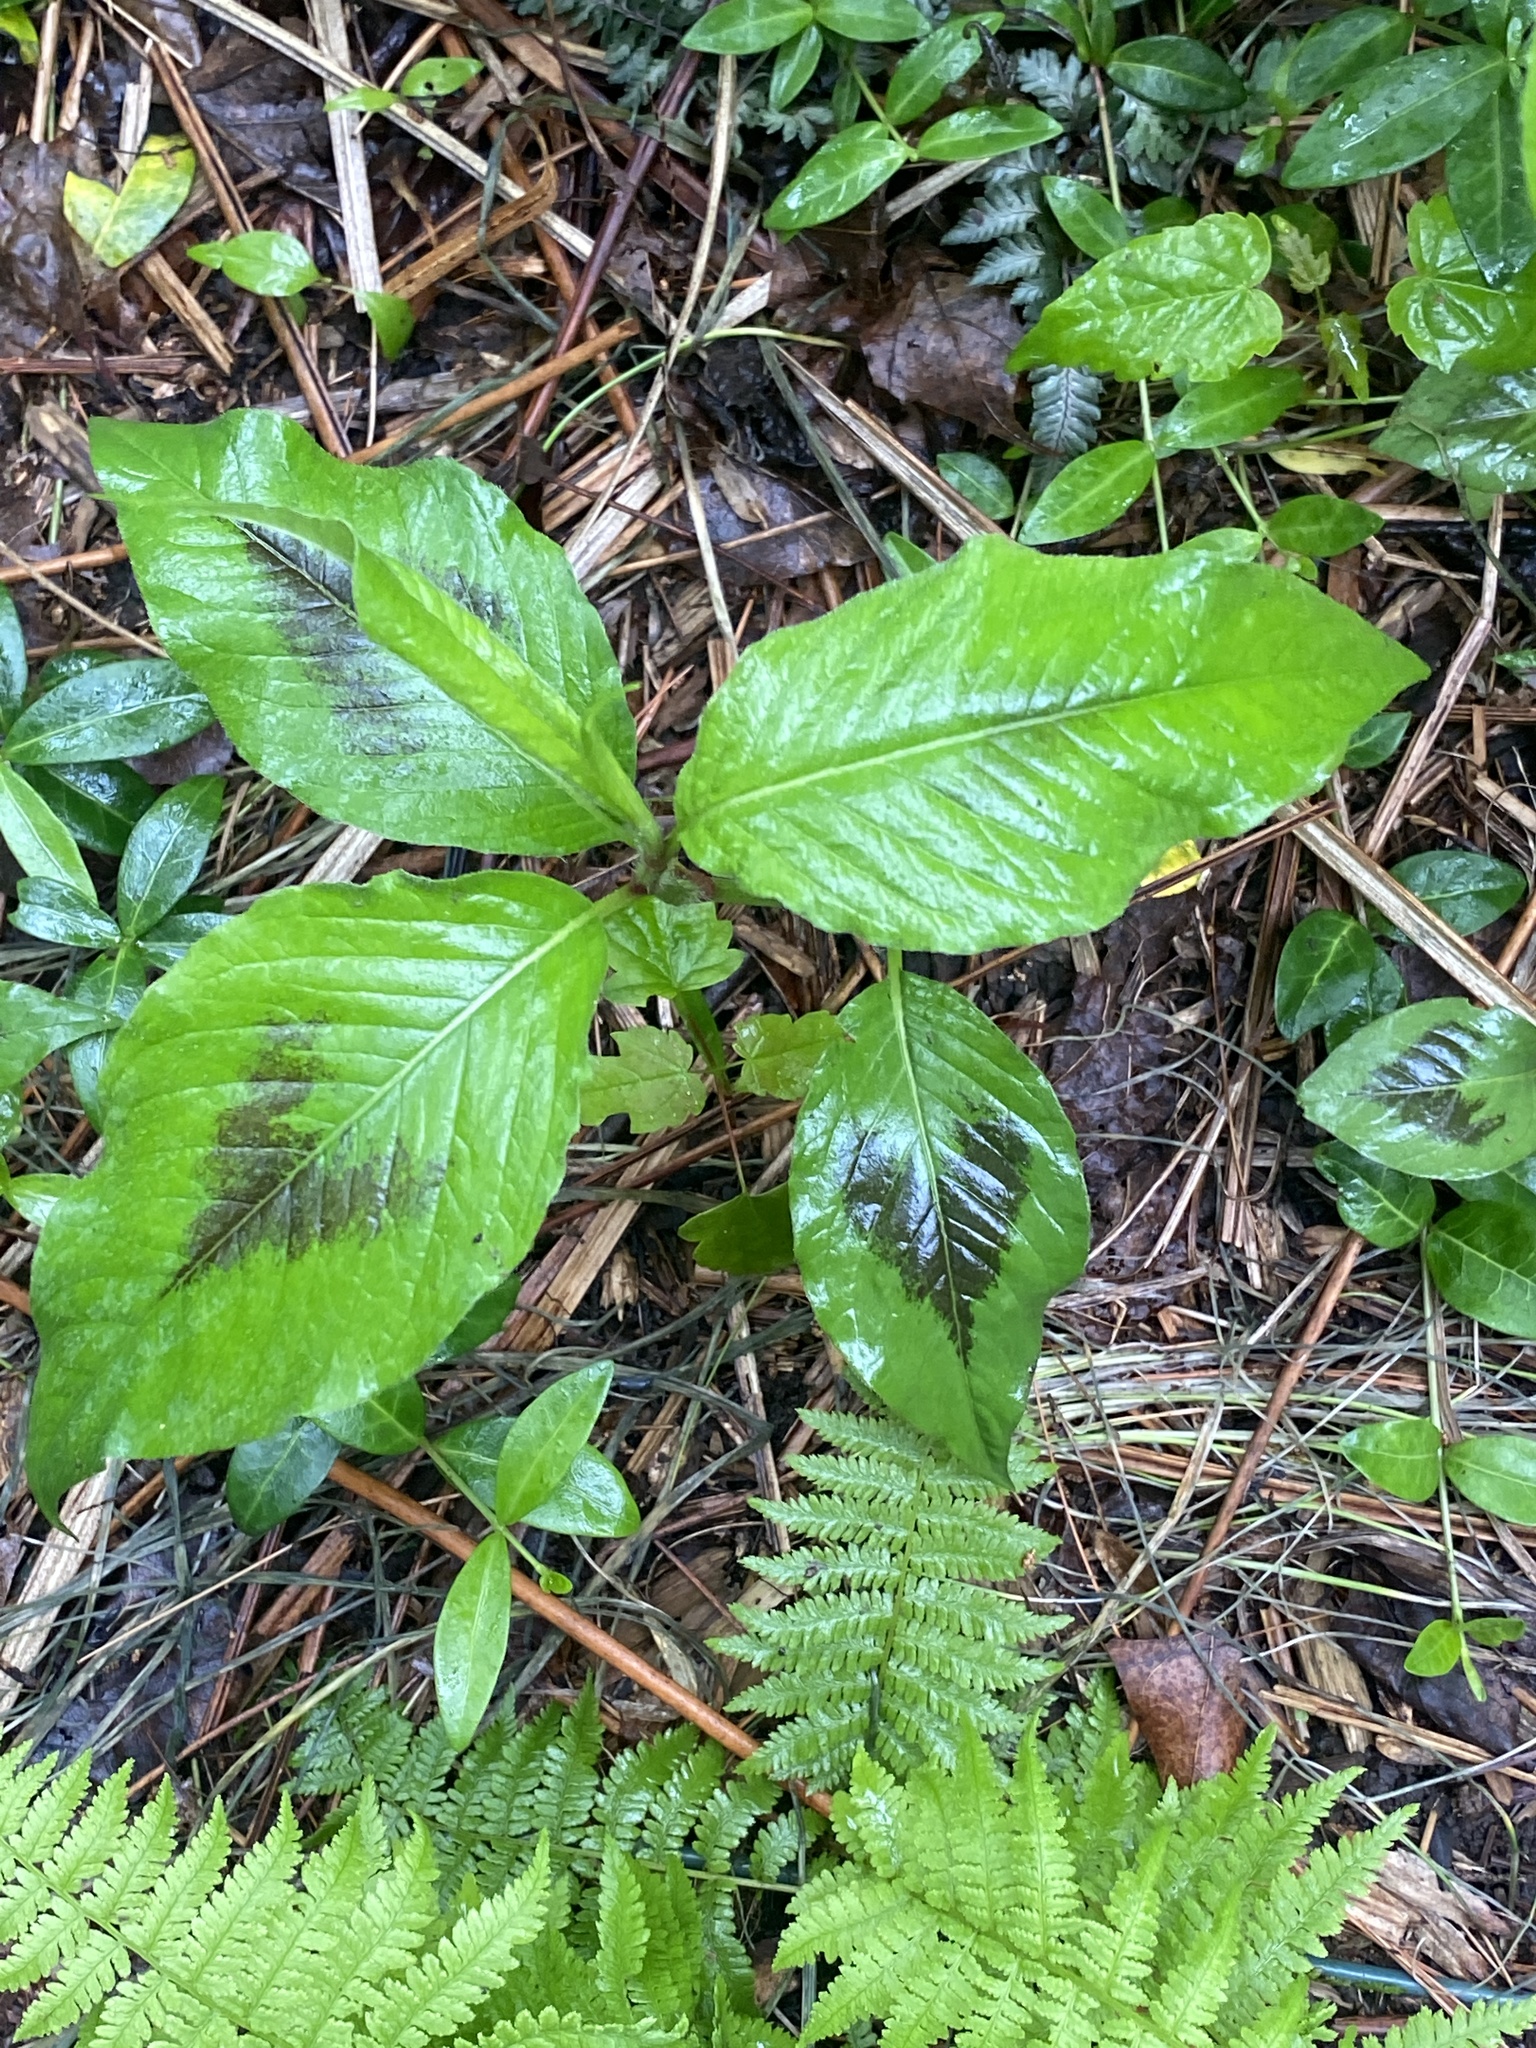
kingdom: Plantae
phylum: Tracheophyta
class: Magnoliopsida
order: Caryophyllales
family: Polygonaceae
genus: Persicaria
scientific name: Persicaria virginiana
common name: Jumpseed
